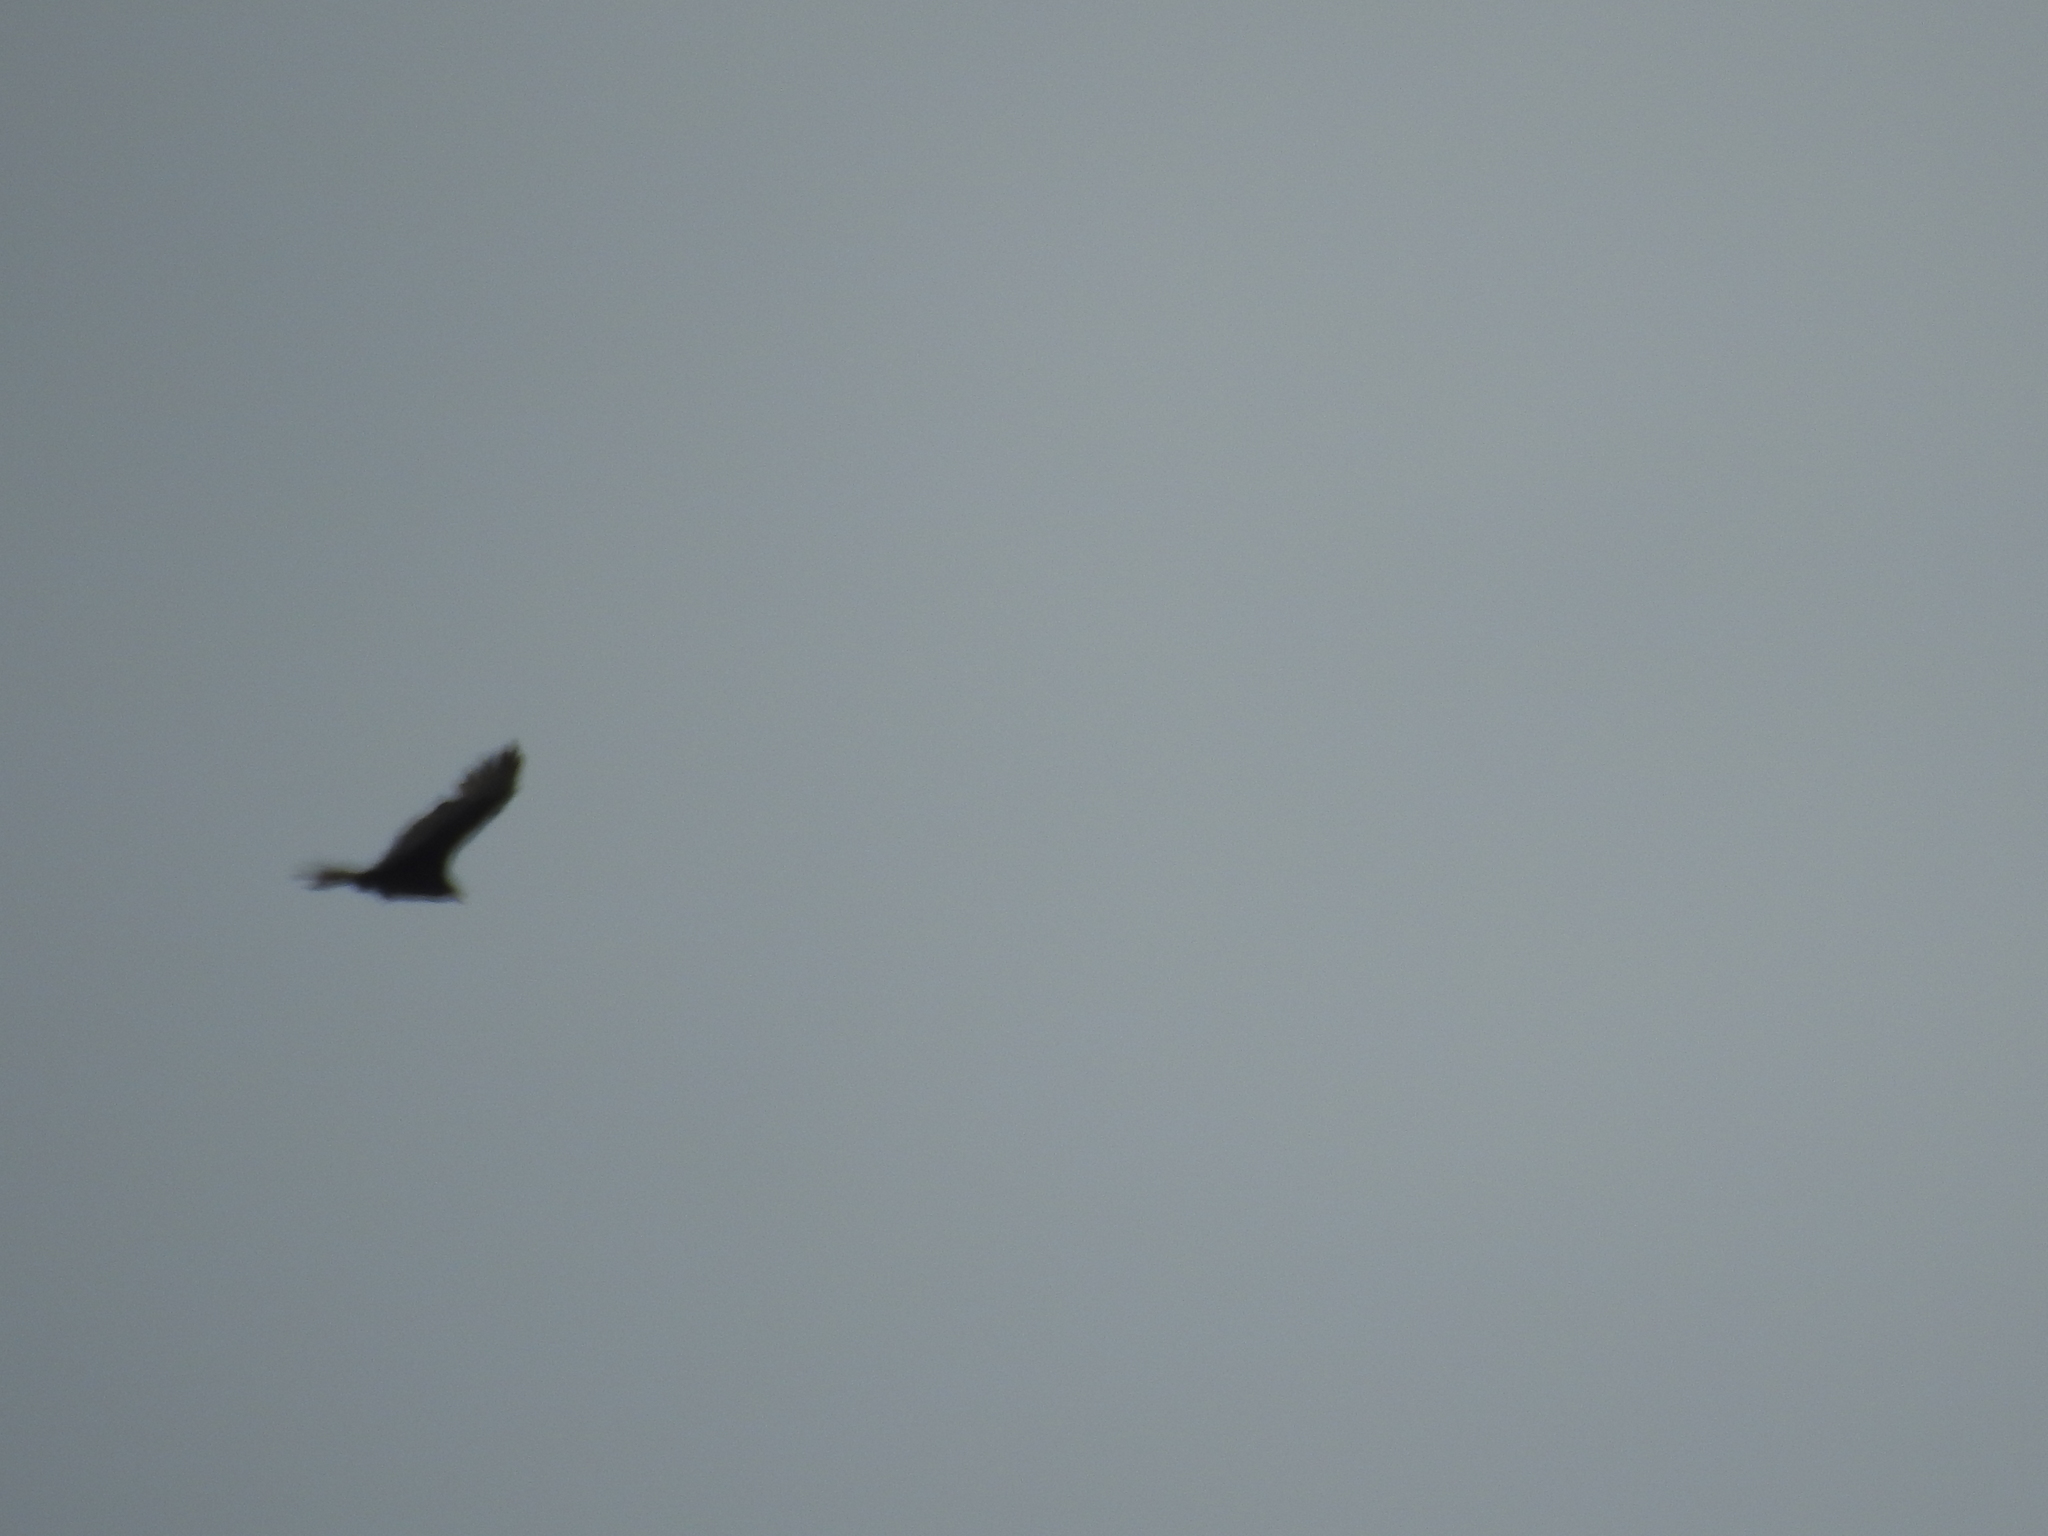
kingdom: Animalia
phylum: Chordata
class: Aves
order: Accipitriformes
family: Cathartidae
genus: Cathartes
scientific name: Cathartes aura
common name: Turkey vulture
